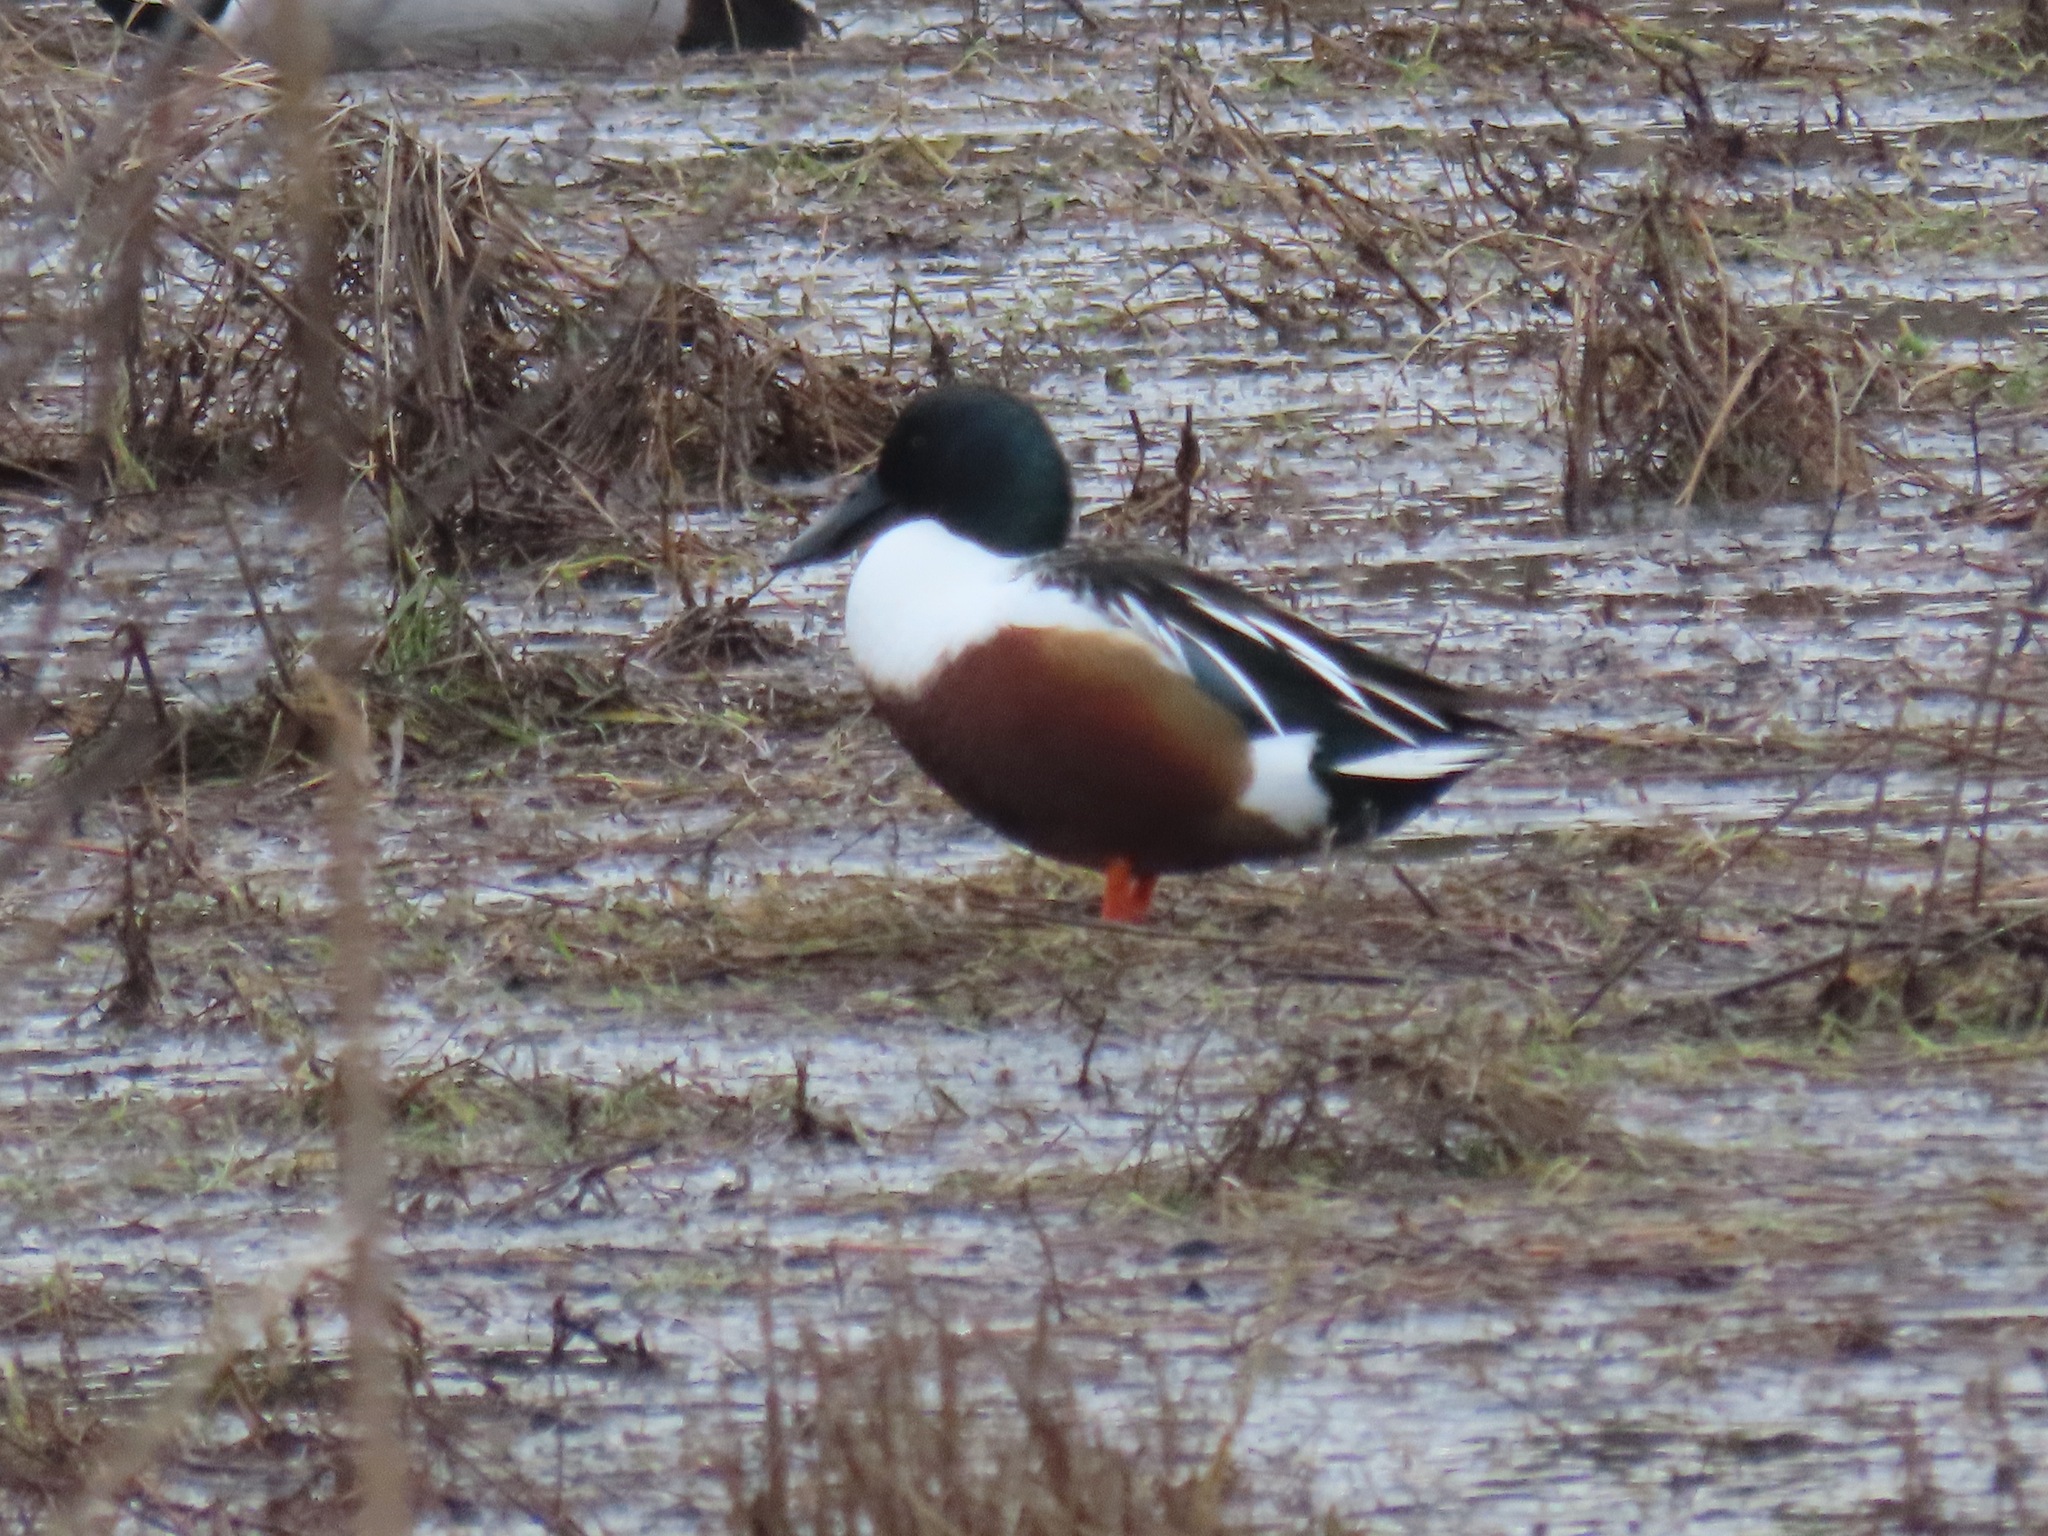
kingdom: Animalia
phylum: Chordata
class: Aves
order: Anseriformes
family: Anatidae
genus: Spatula
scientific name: Spatula clypeata
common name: Northern shoveler
